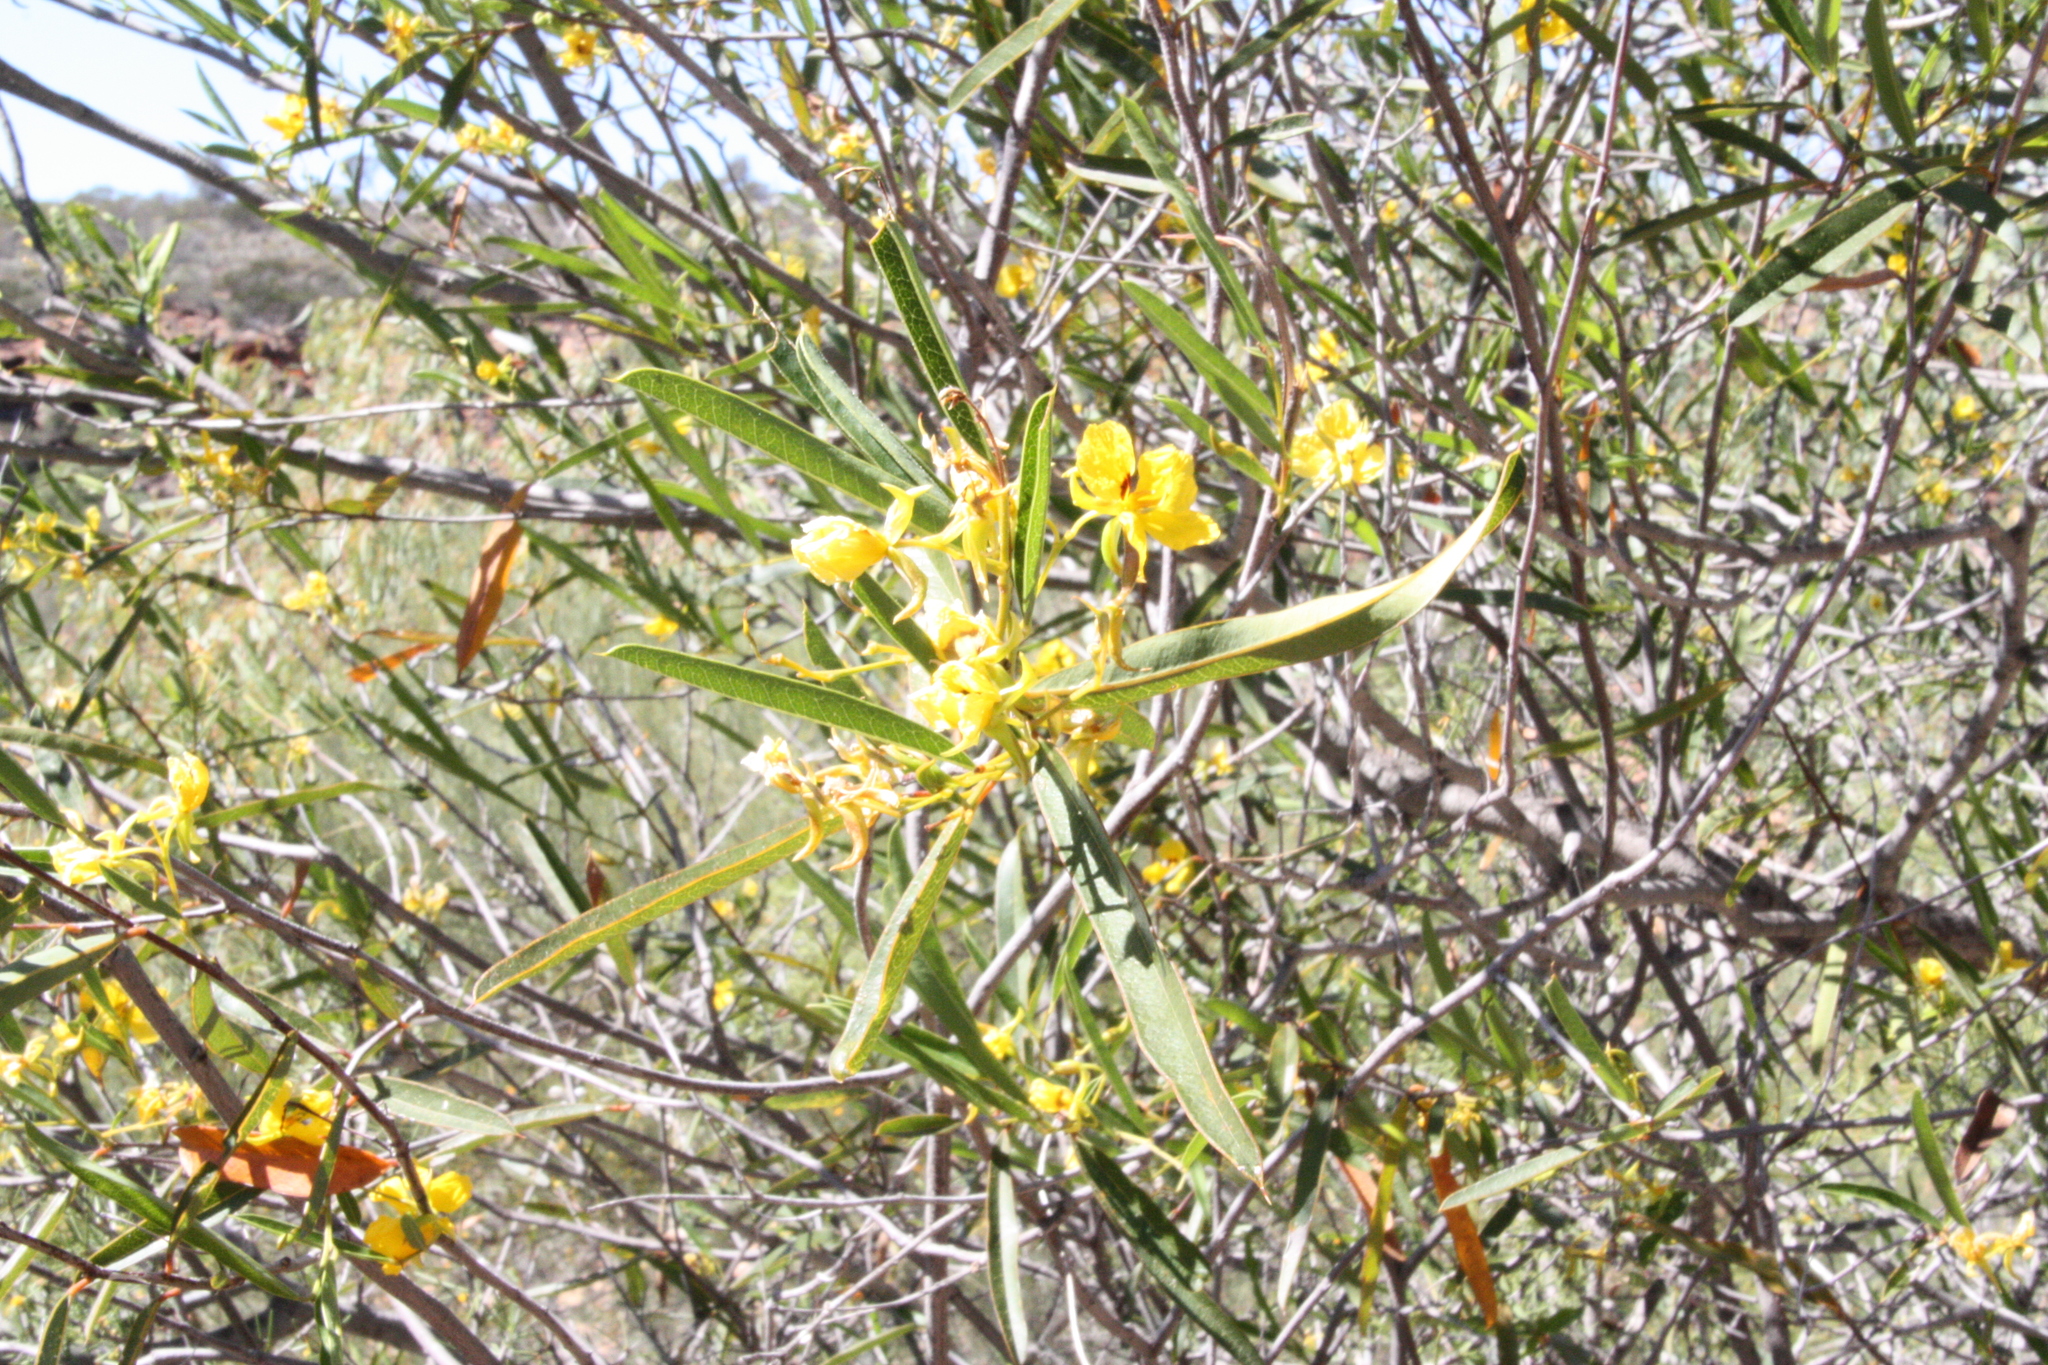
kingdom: Plantae
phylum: Tracheophyta
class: Magnoliopsida
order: Fabales
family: Fabaceae
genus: Labichea
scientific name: Labichea lanceolata
